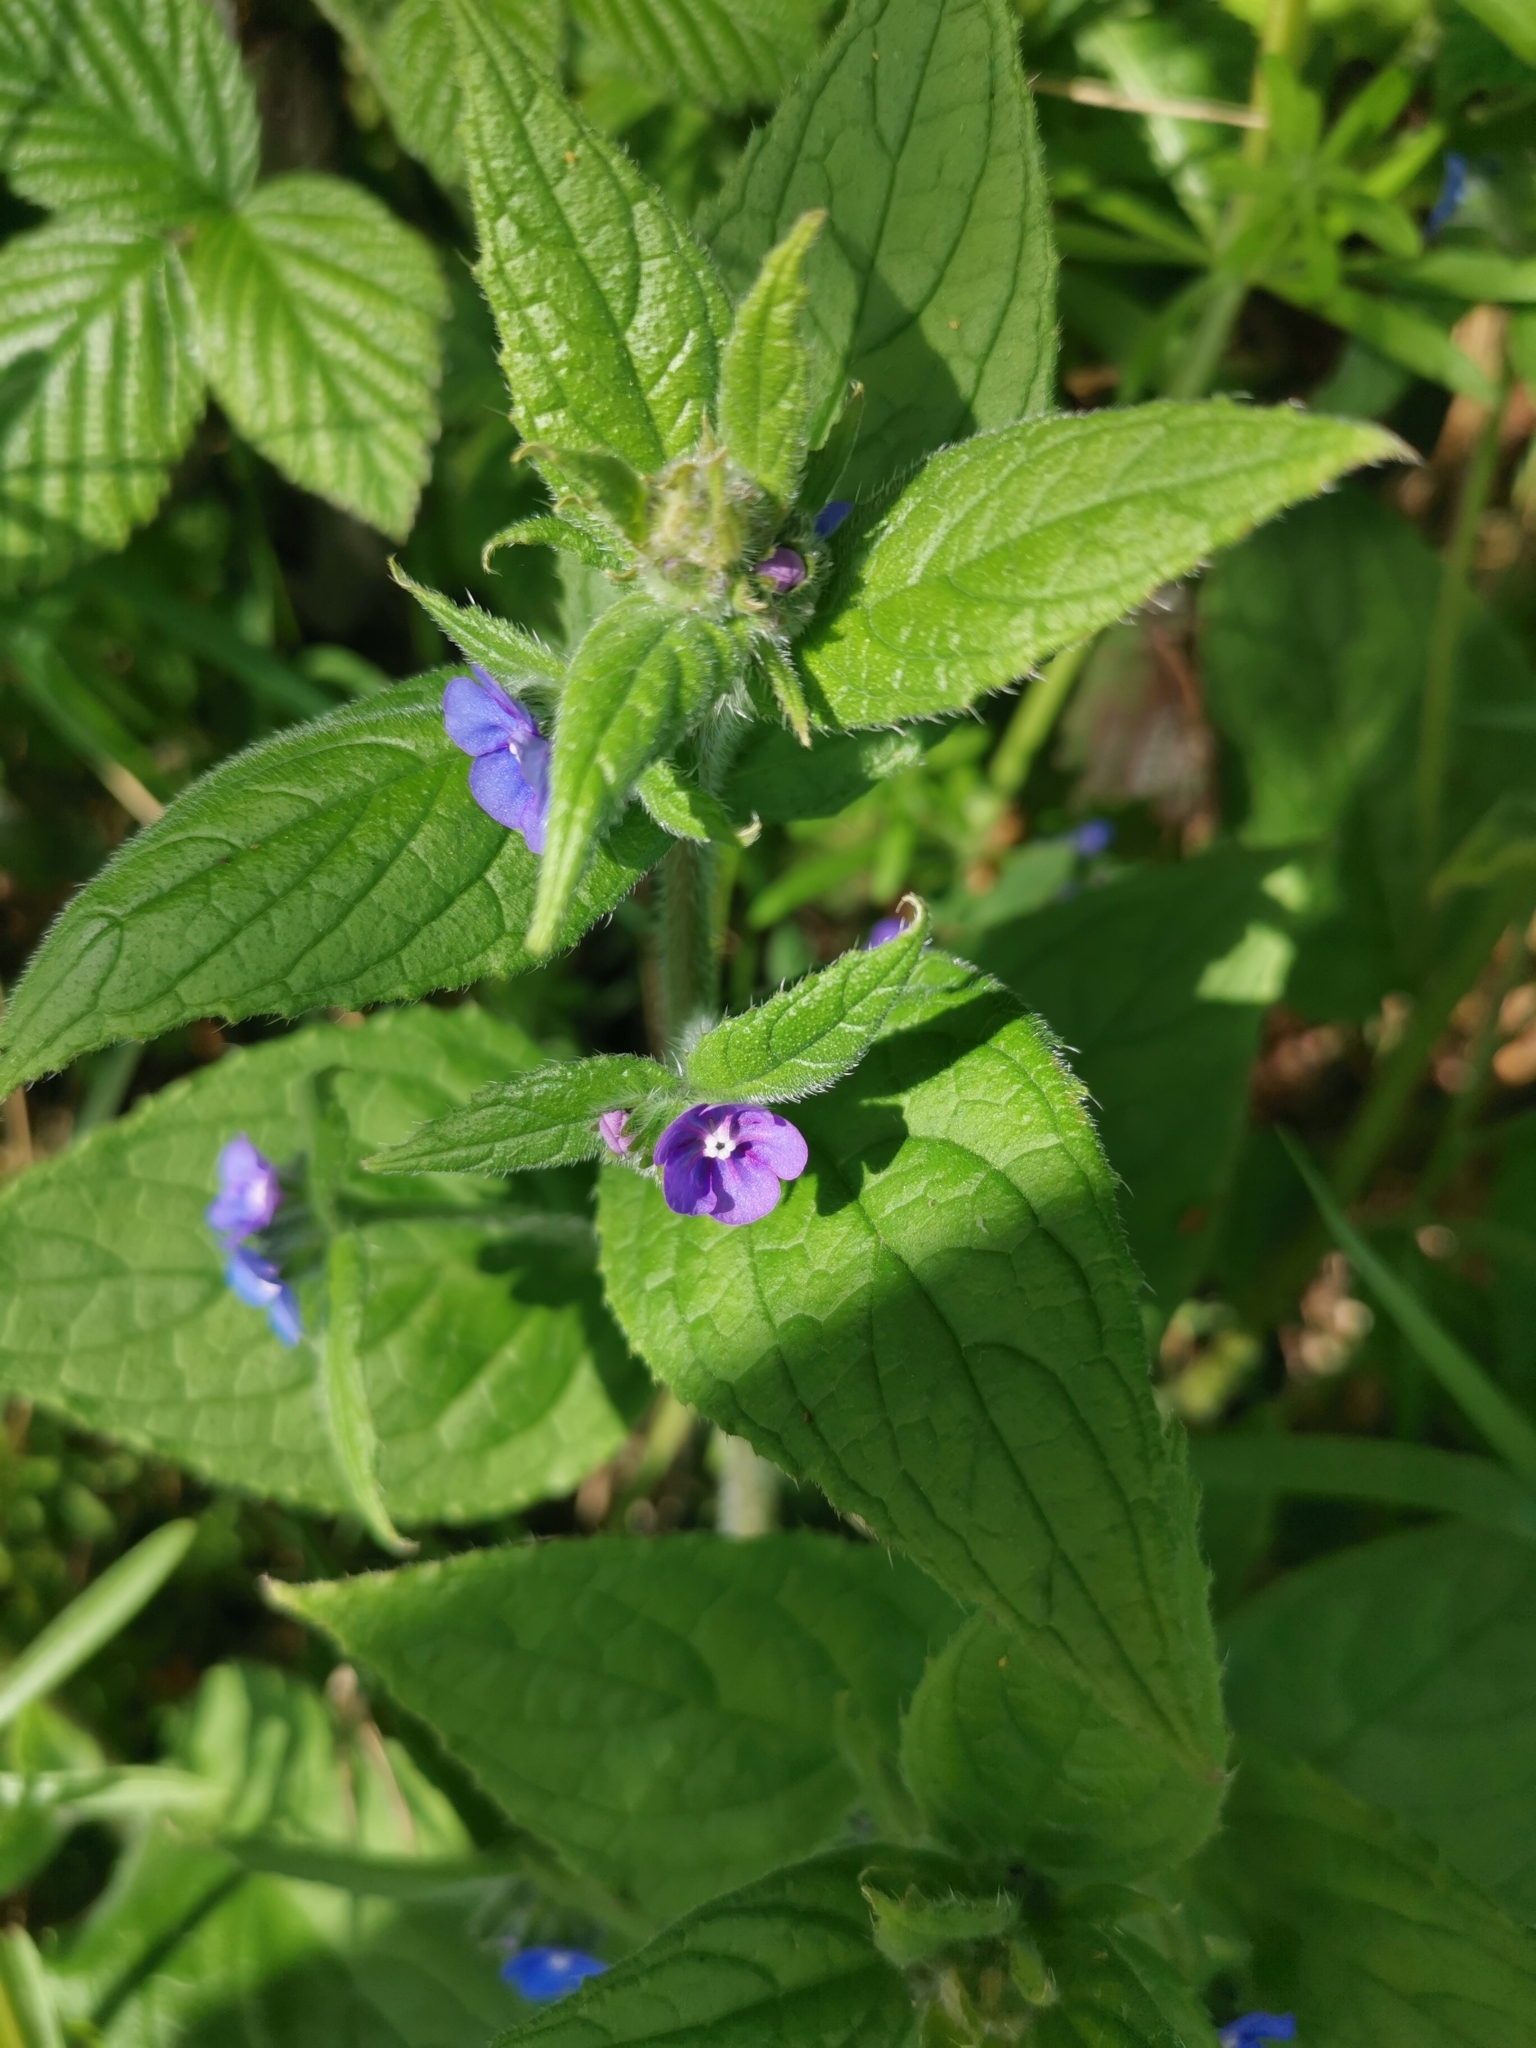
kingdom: Plantae
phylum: Tracheophyta
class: Magnoliopsida
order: Boraginales
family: Boraginaceae
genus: Pentaglottis
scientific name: Pentaglottis sempervirens
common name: Green alkanet
